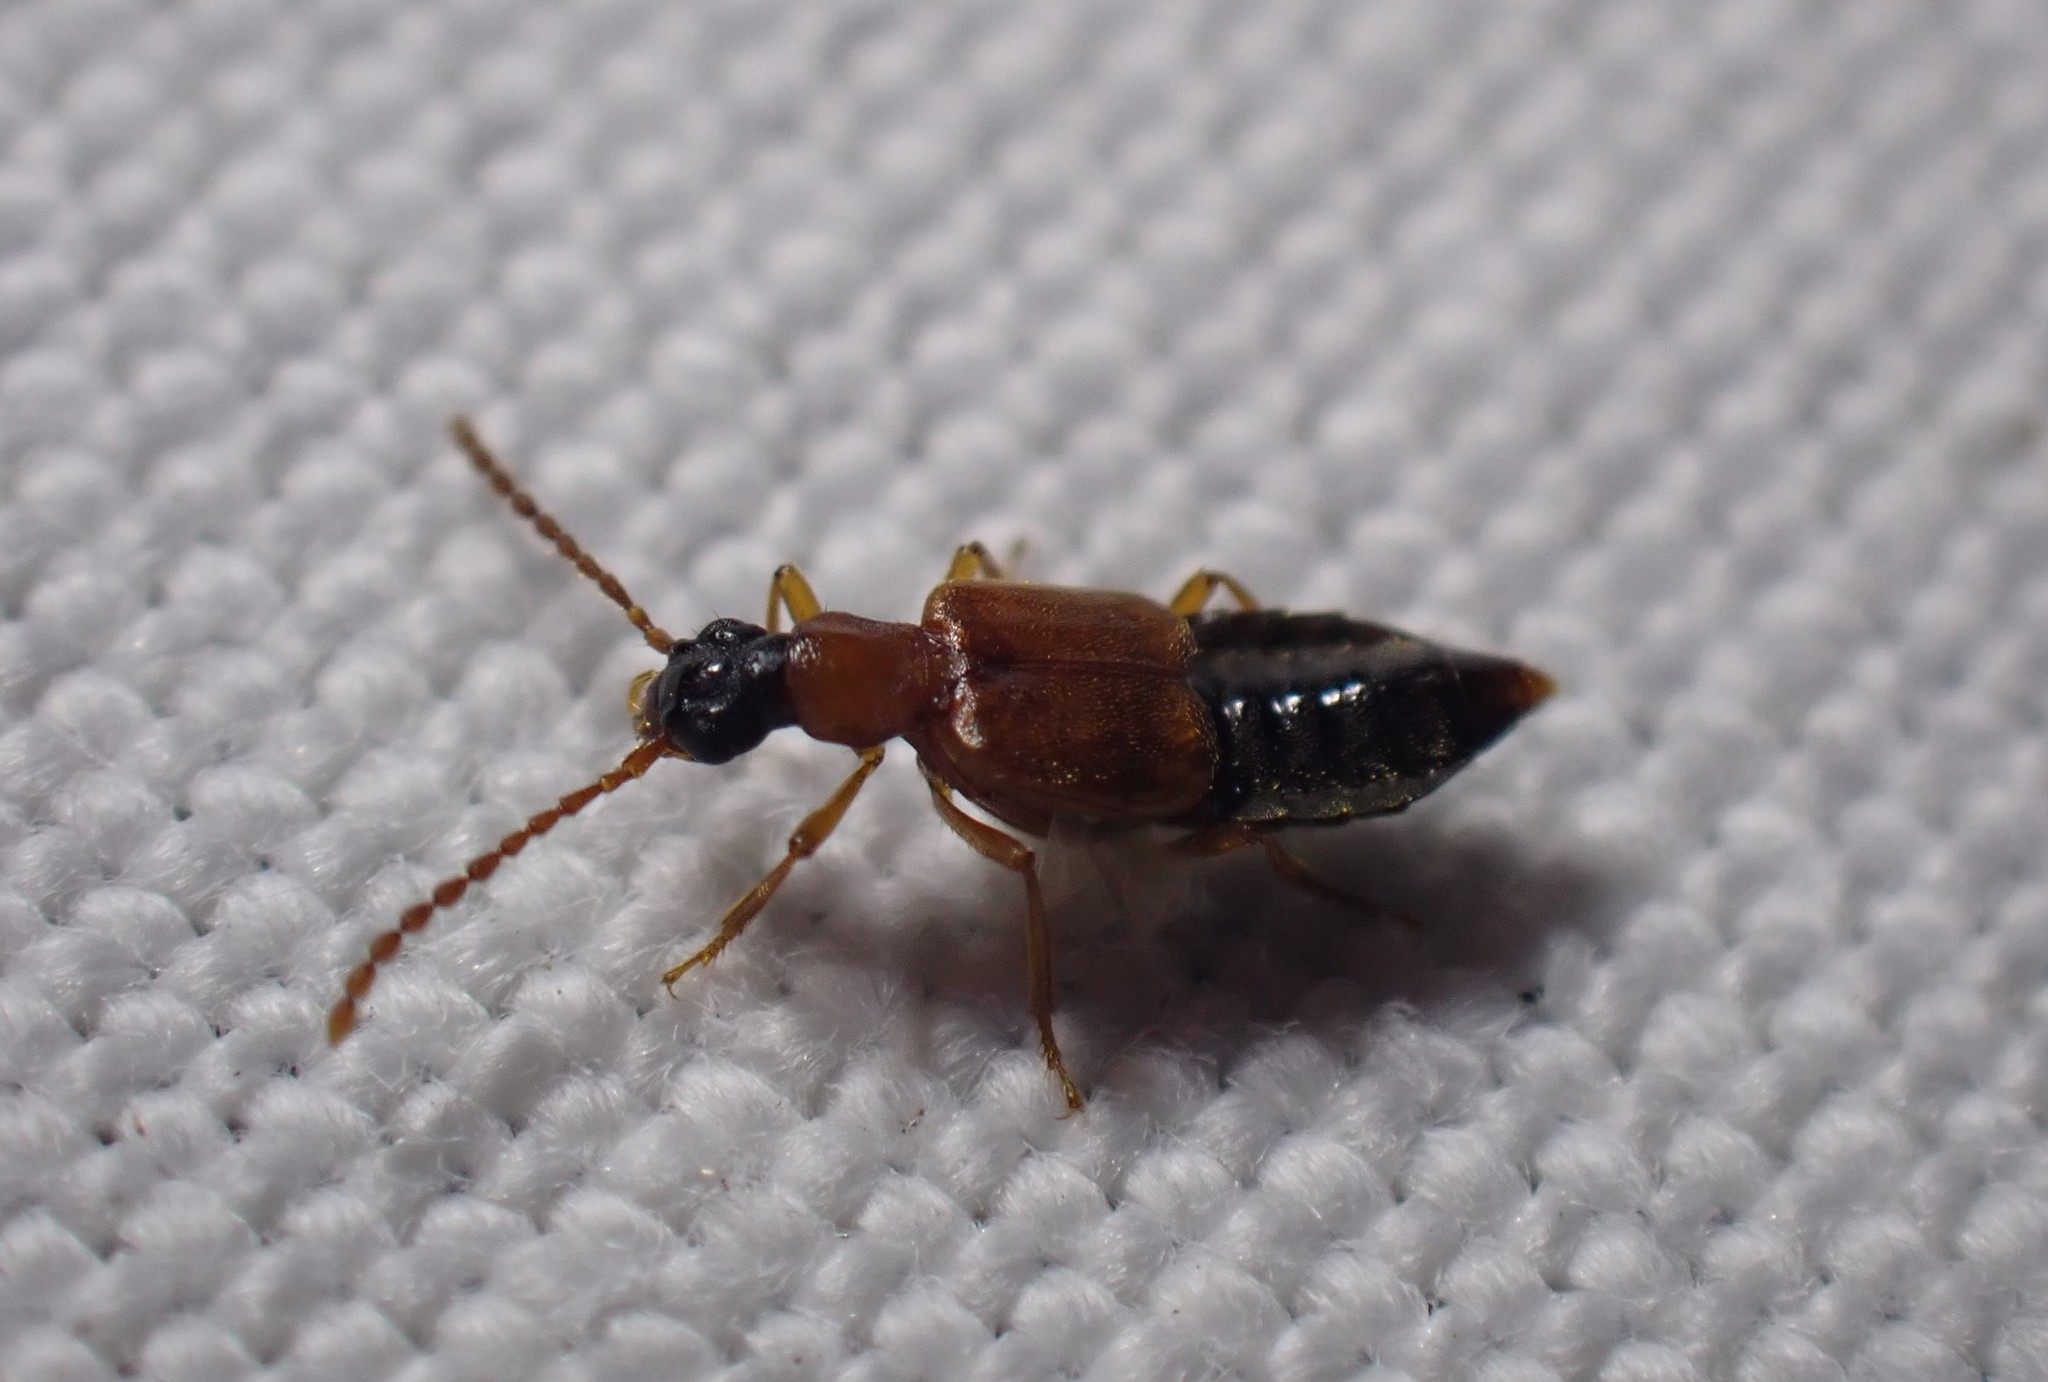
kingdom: Animalia
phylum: Arthropoda
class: Insecta
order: Coleoptera
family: Staphylinidae
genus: Deleaster
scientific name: Deleaster dichrous
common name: Rove beetle
